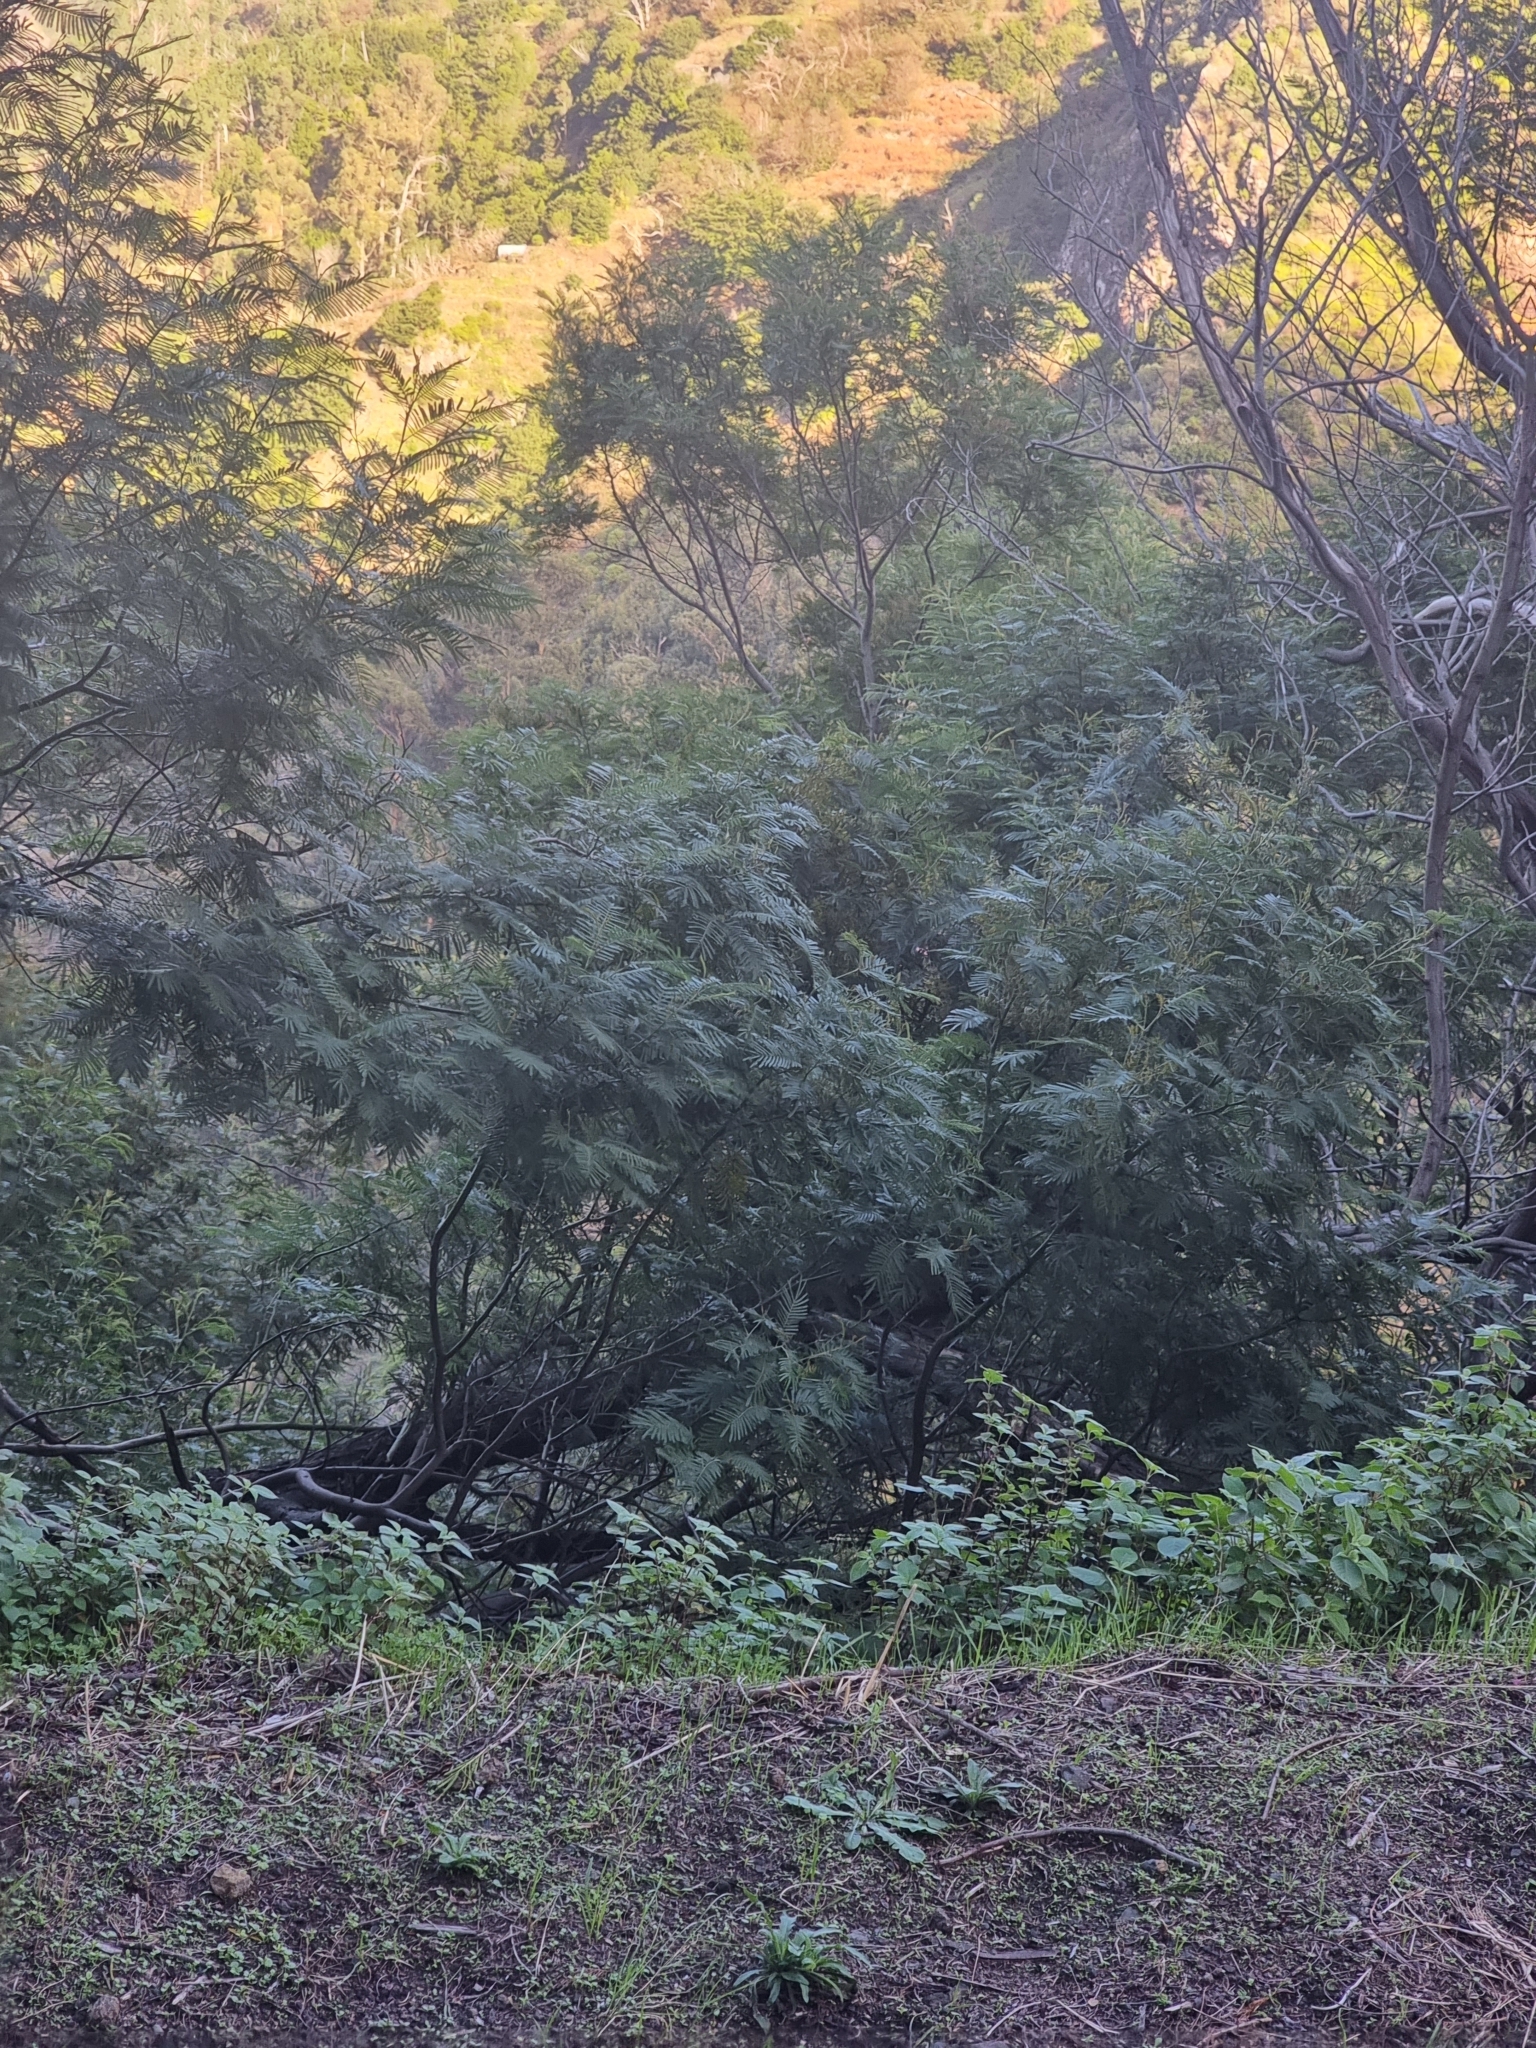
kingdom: Plantae
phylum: Tracheophyta
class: Magnoliopsida
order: Fabales
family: Fabaceae
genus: Acacia
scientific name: Acacia mearnsii
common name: Black wattle
